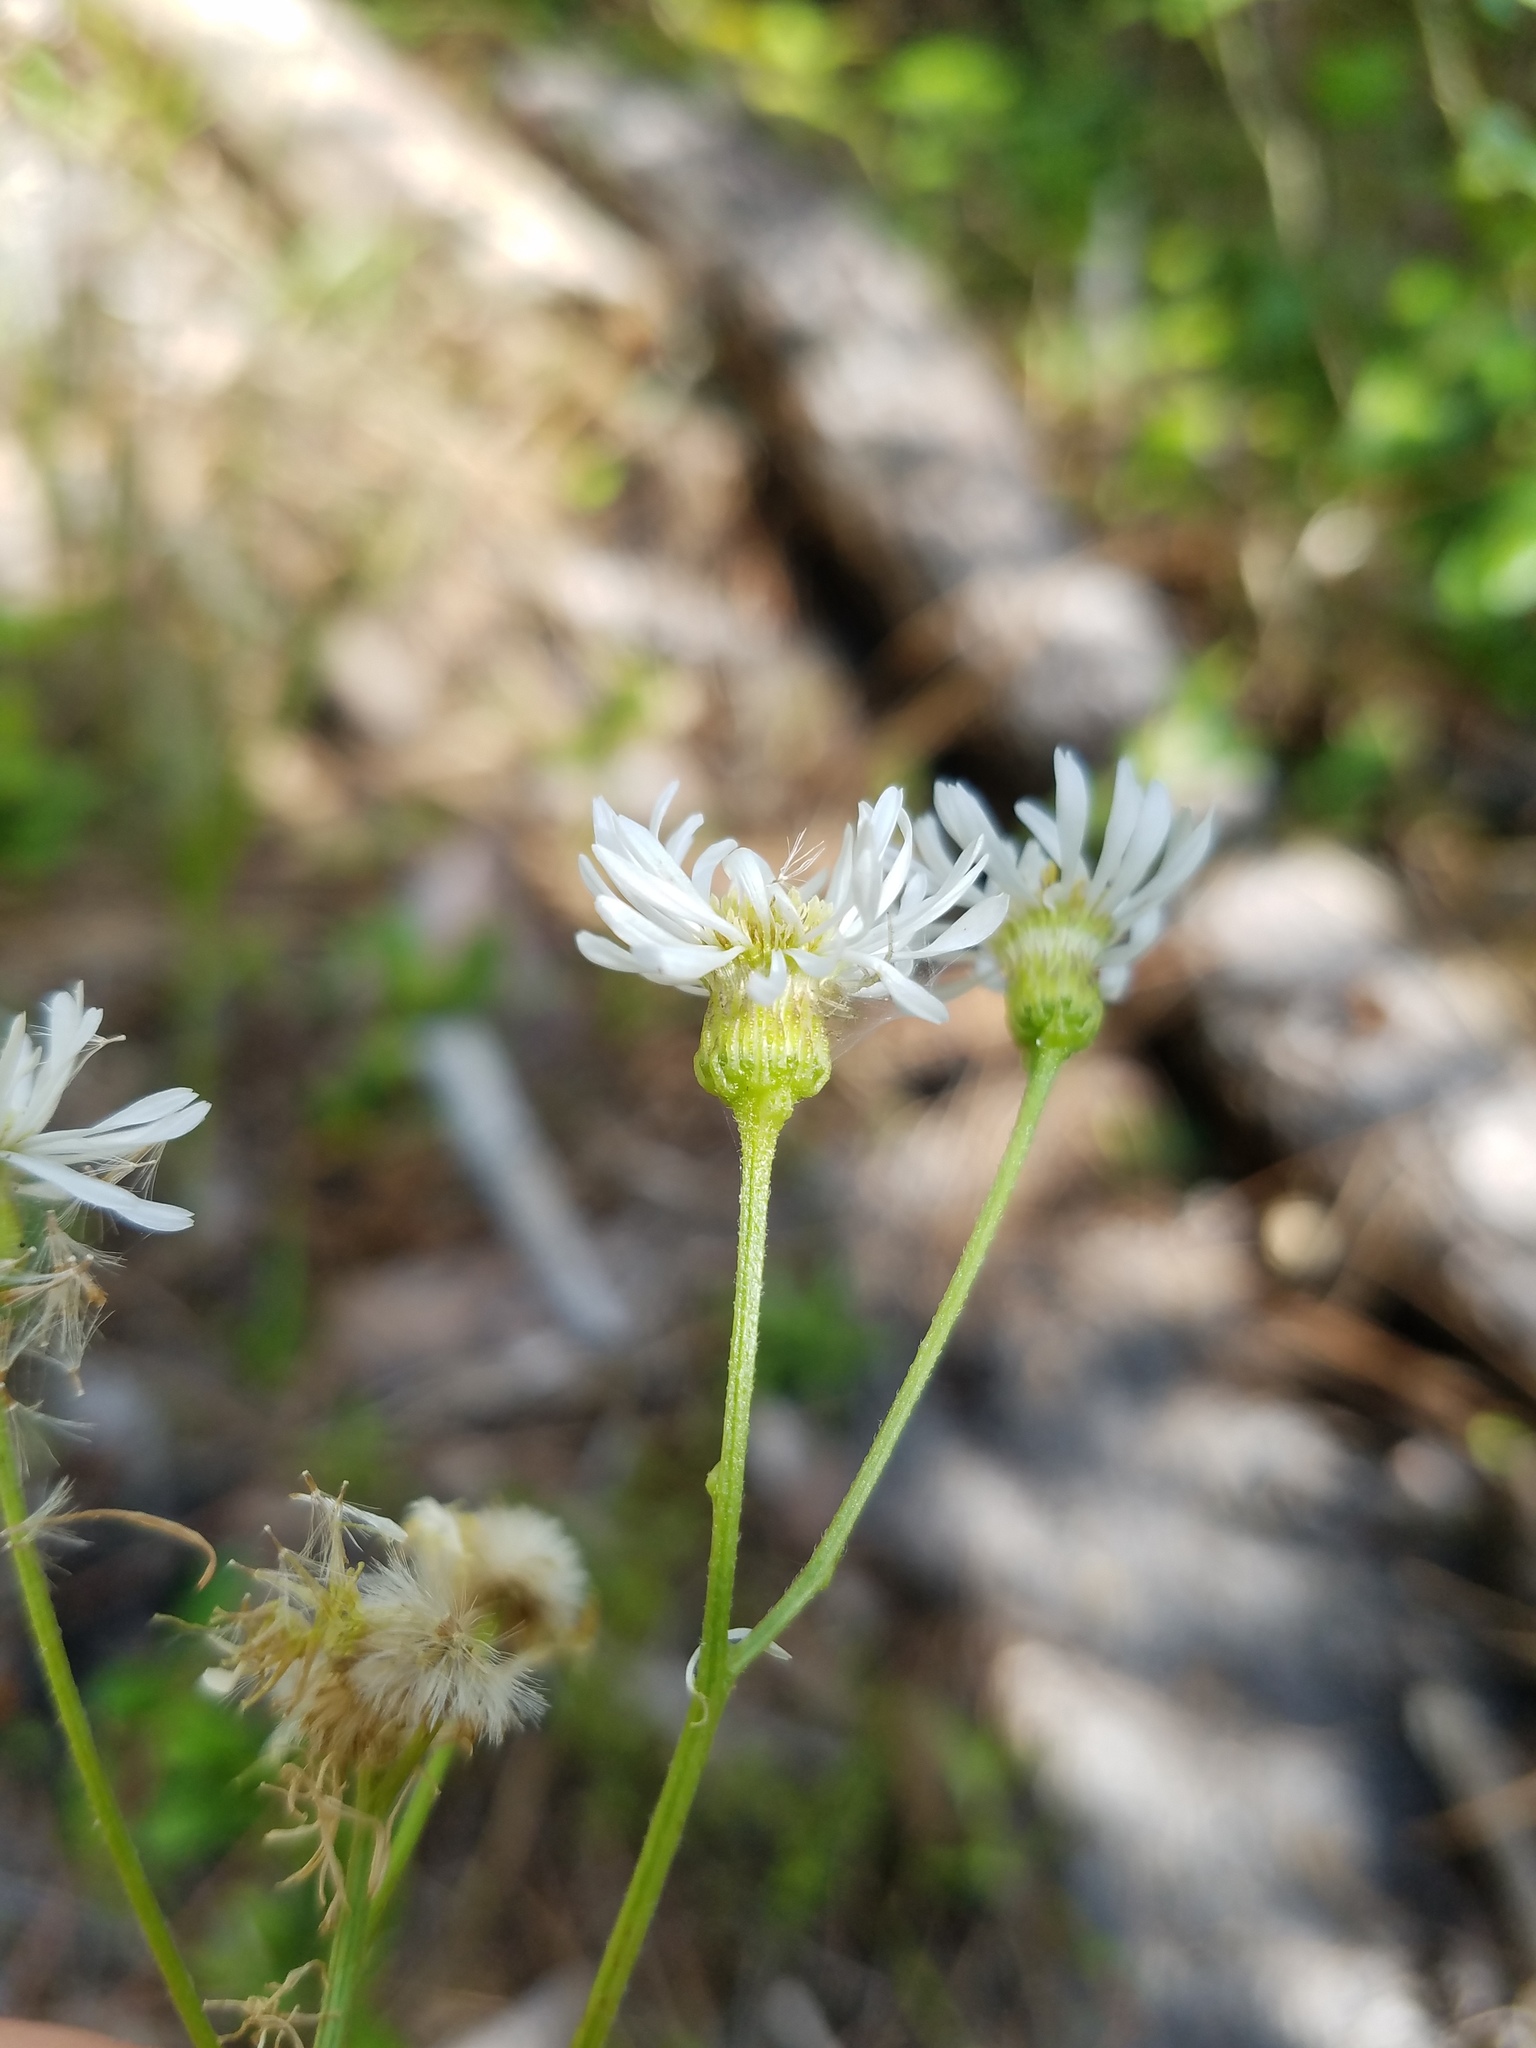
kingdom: Plantae
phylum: Tracheophyta
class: Magnoliopsida
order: Asterales
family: Asteraceae
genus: Erigeron
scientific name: Erigeron vernus
